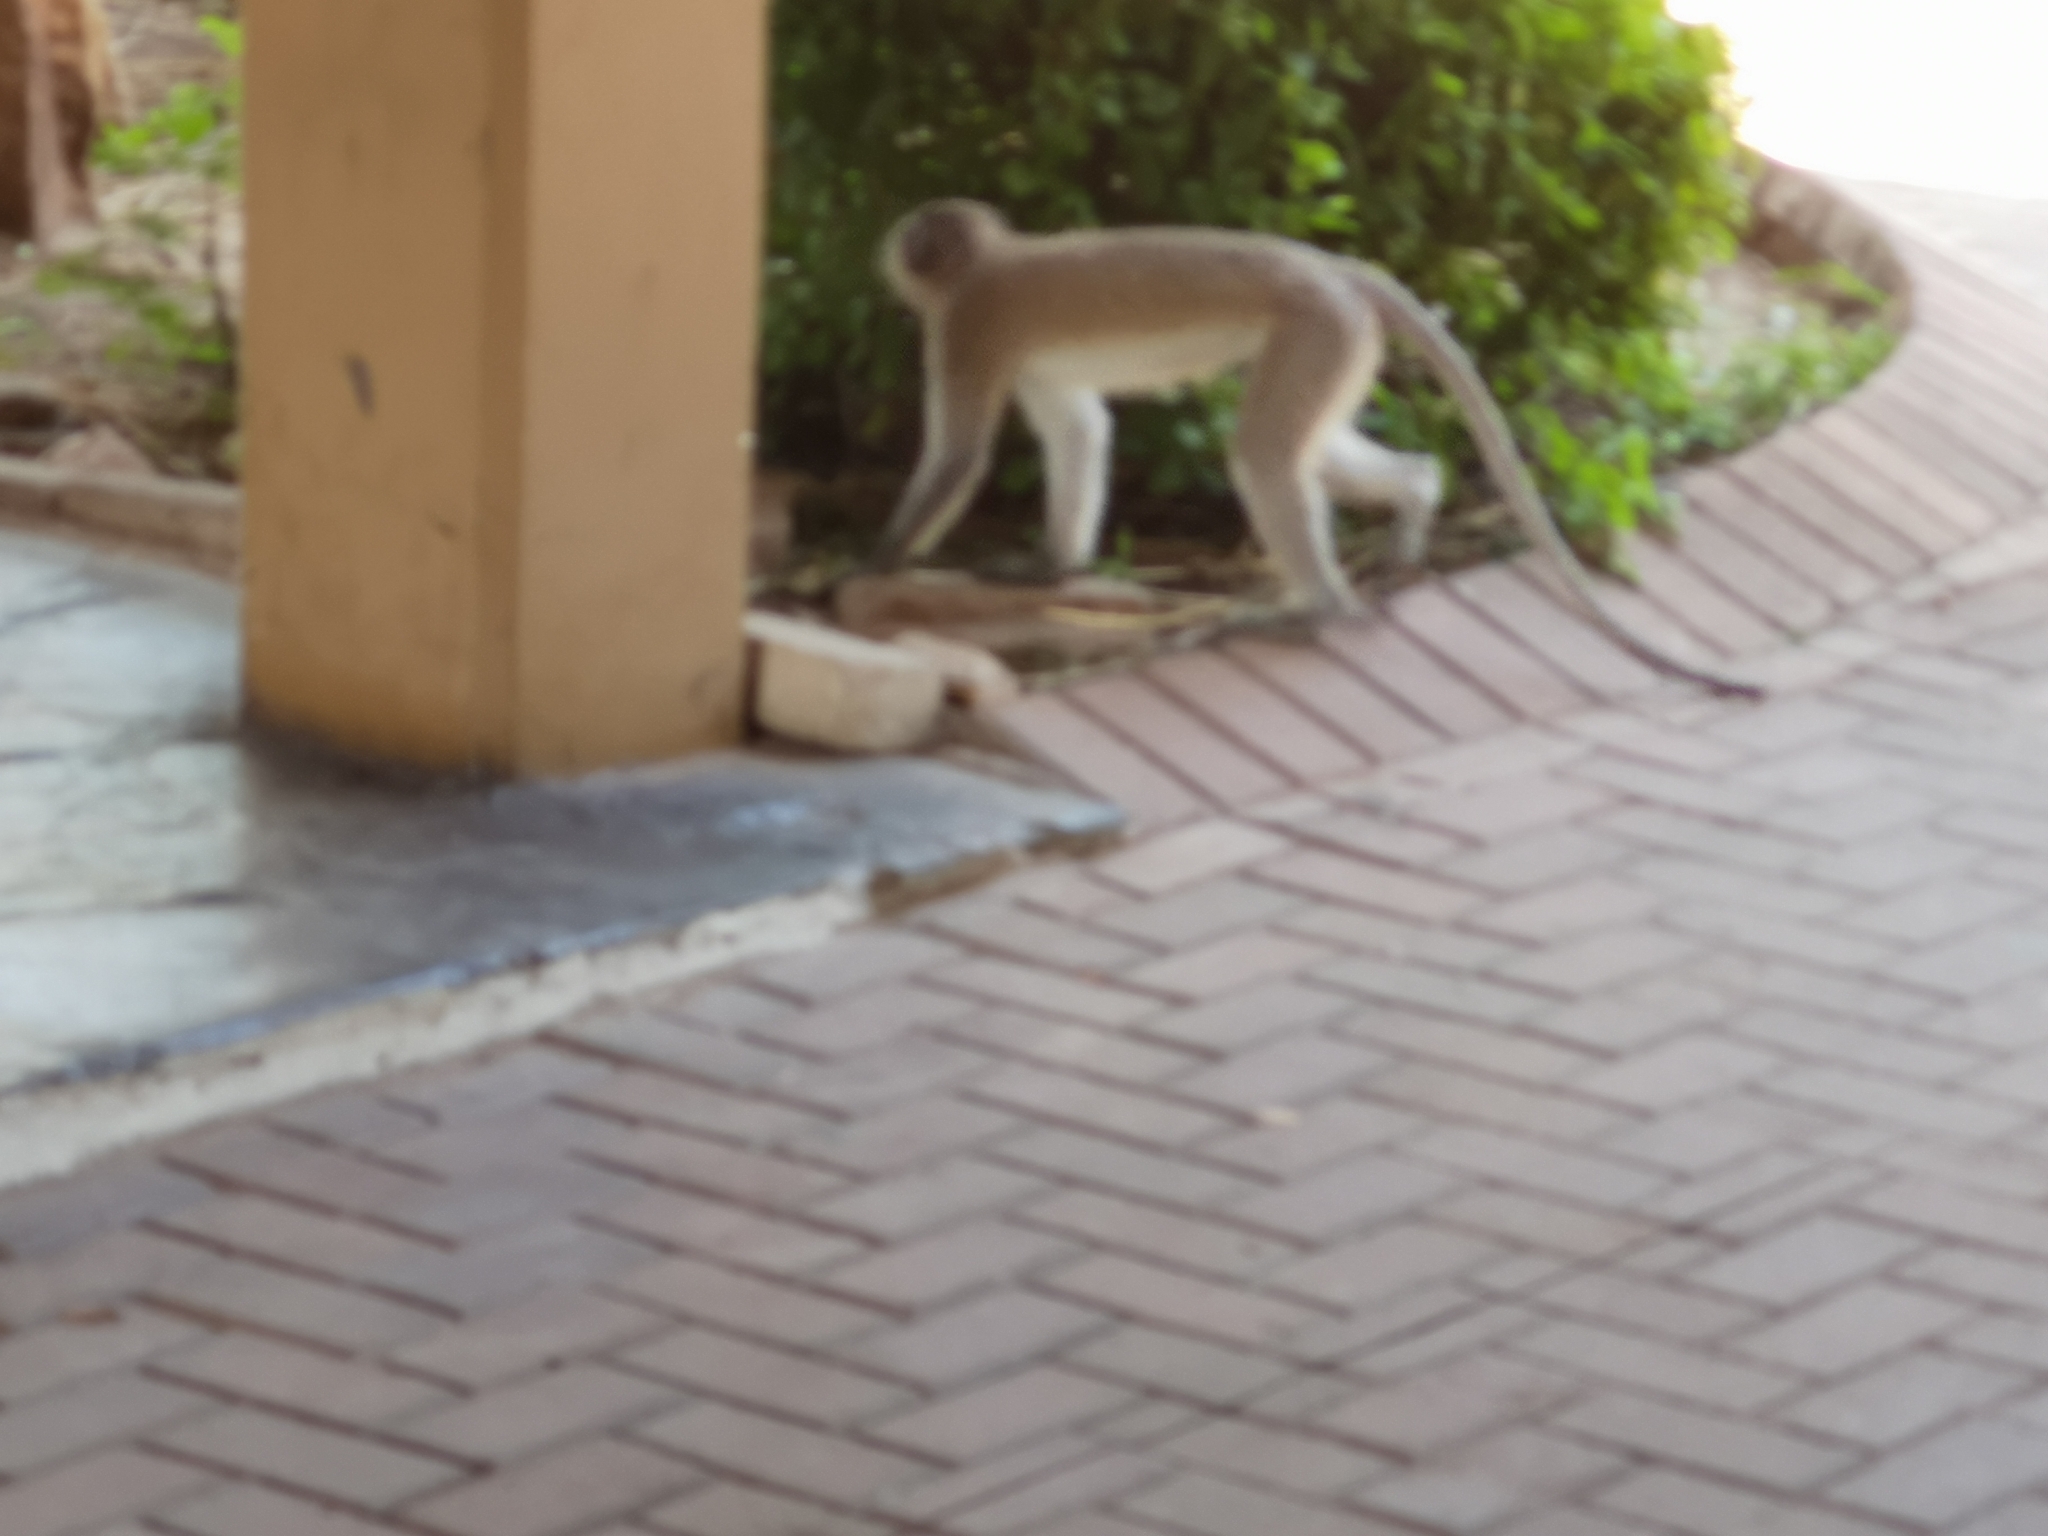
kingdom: Animalia
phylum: Chordata
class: Mammalia
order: Primates
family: Cercopithecidae
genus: Chlorocebus
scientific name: Chlorocebus pygerythrus
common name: Vervet monkey
